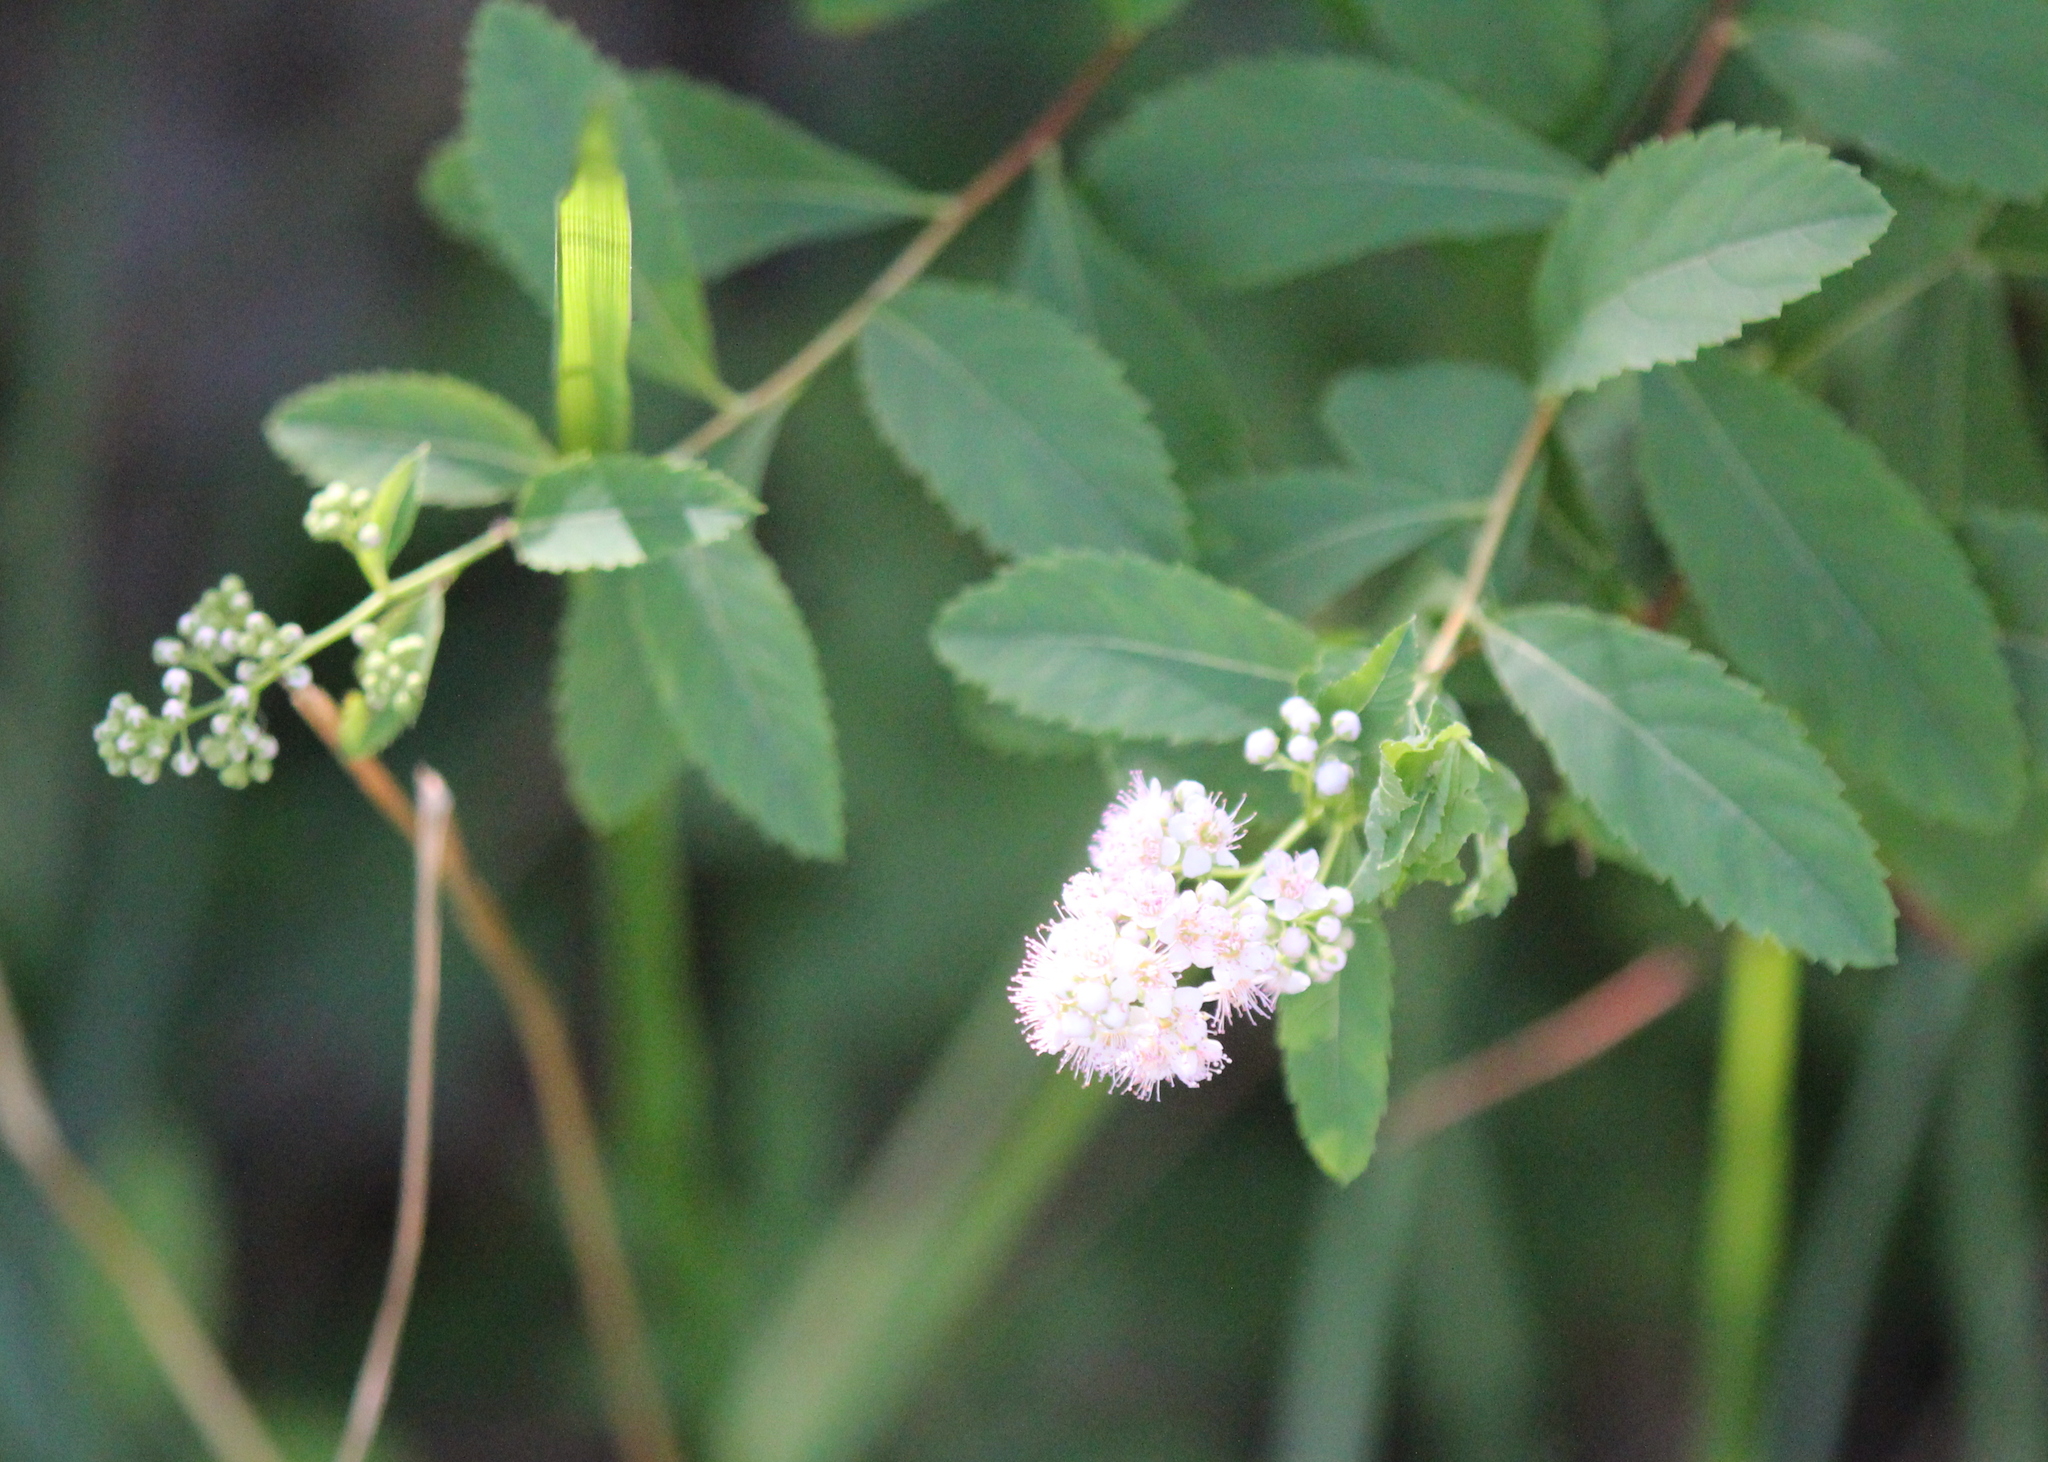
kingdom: Plantae
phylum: Tracheophyta
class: Magnoliopsida
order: Rosales
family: Rosaceae
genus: Spiraea
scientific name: Spiraea alba
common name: Pale bridewort
